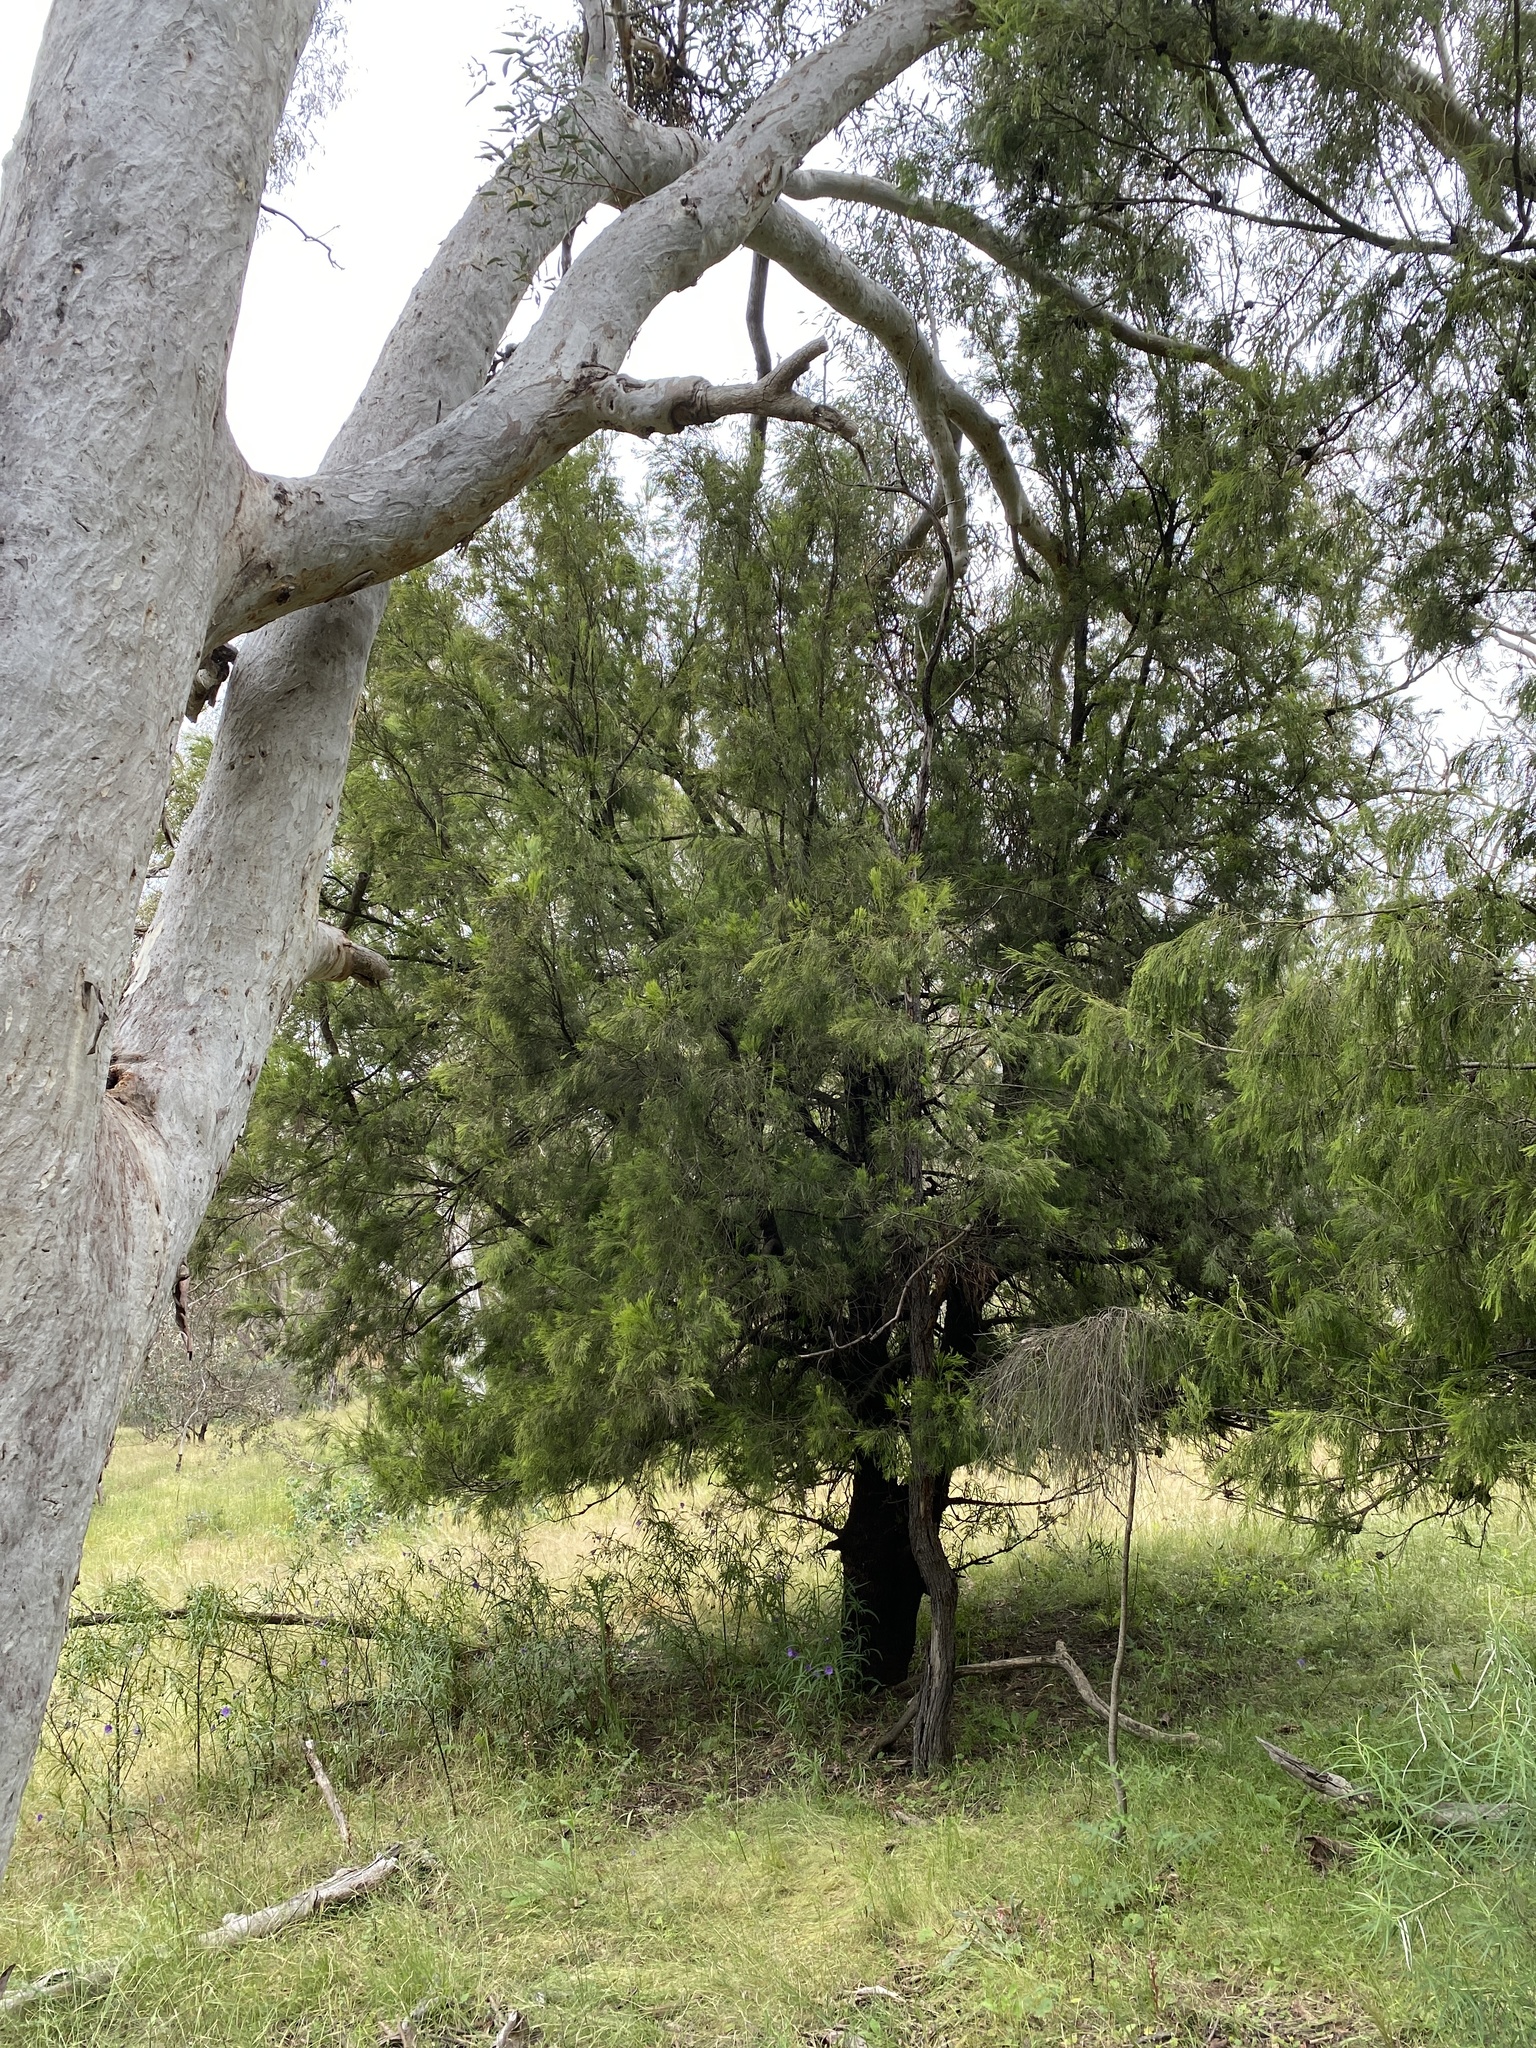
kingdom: Plantae
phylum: Tracheophyta
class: Magnoliopsida
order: Santalales
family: Santalaceae
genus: Exocarpos
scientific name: Exocarpos cupressiformis
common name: Cherry ballart
